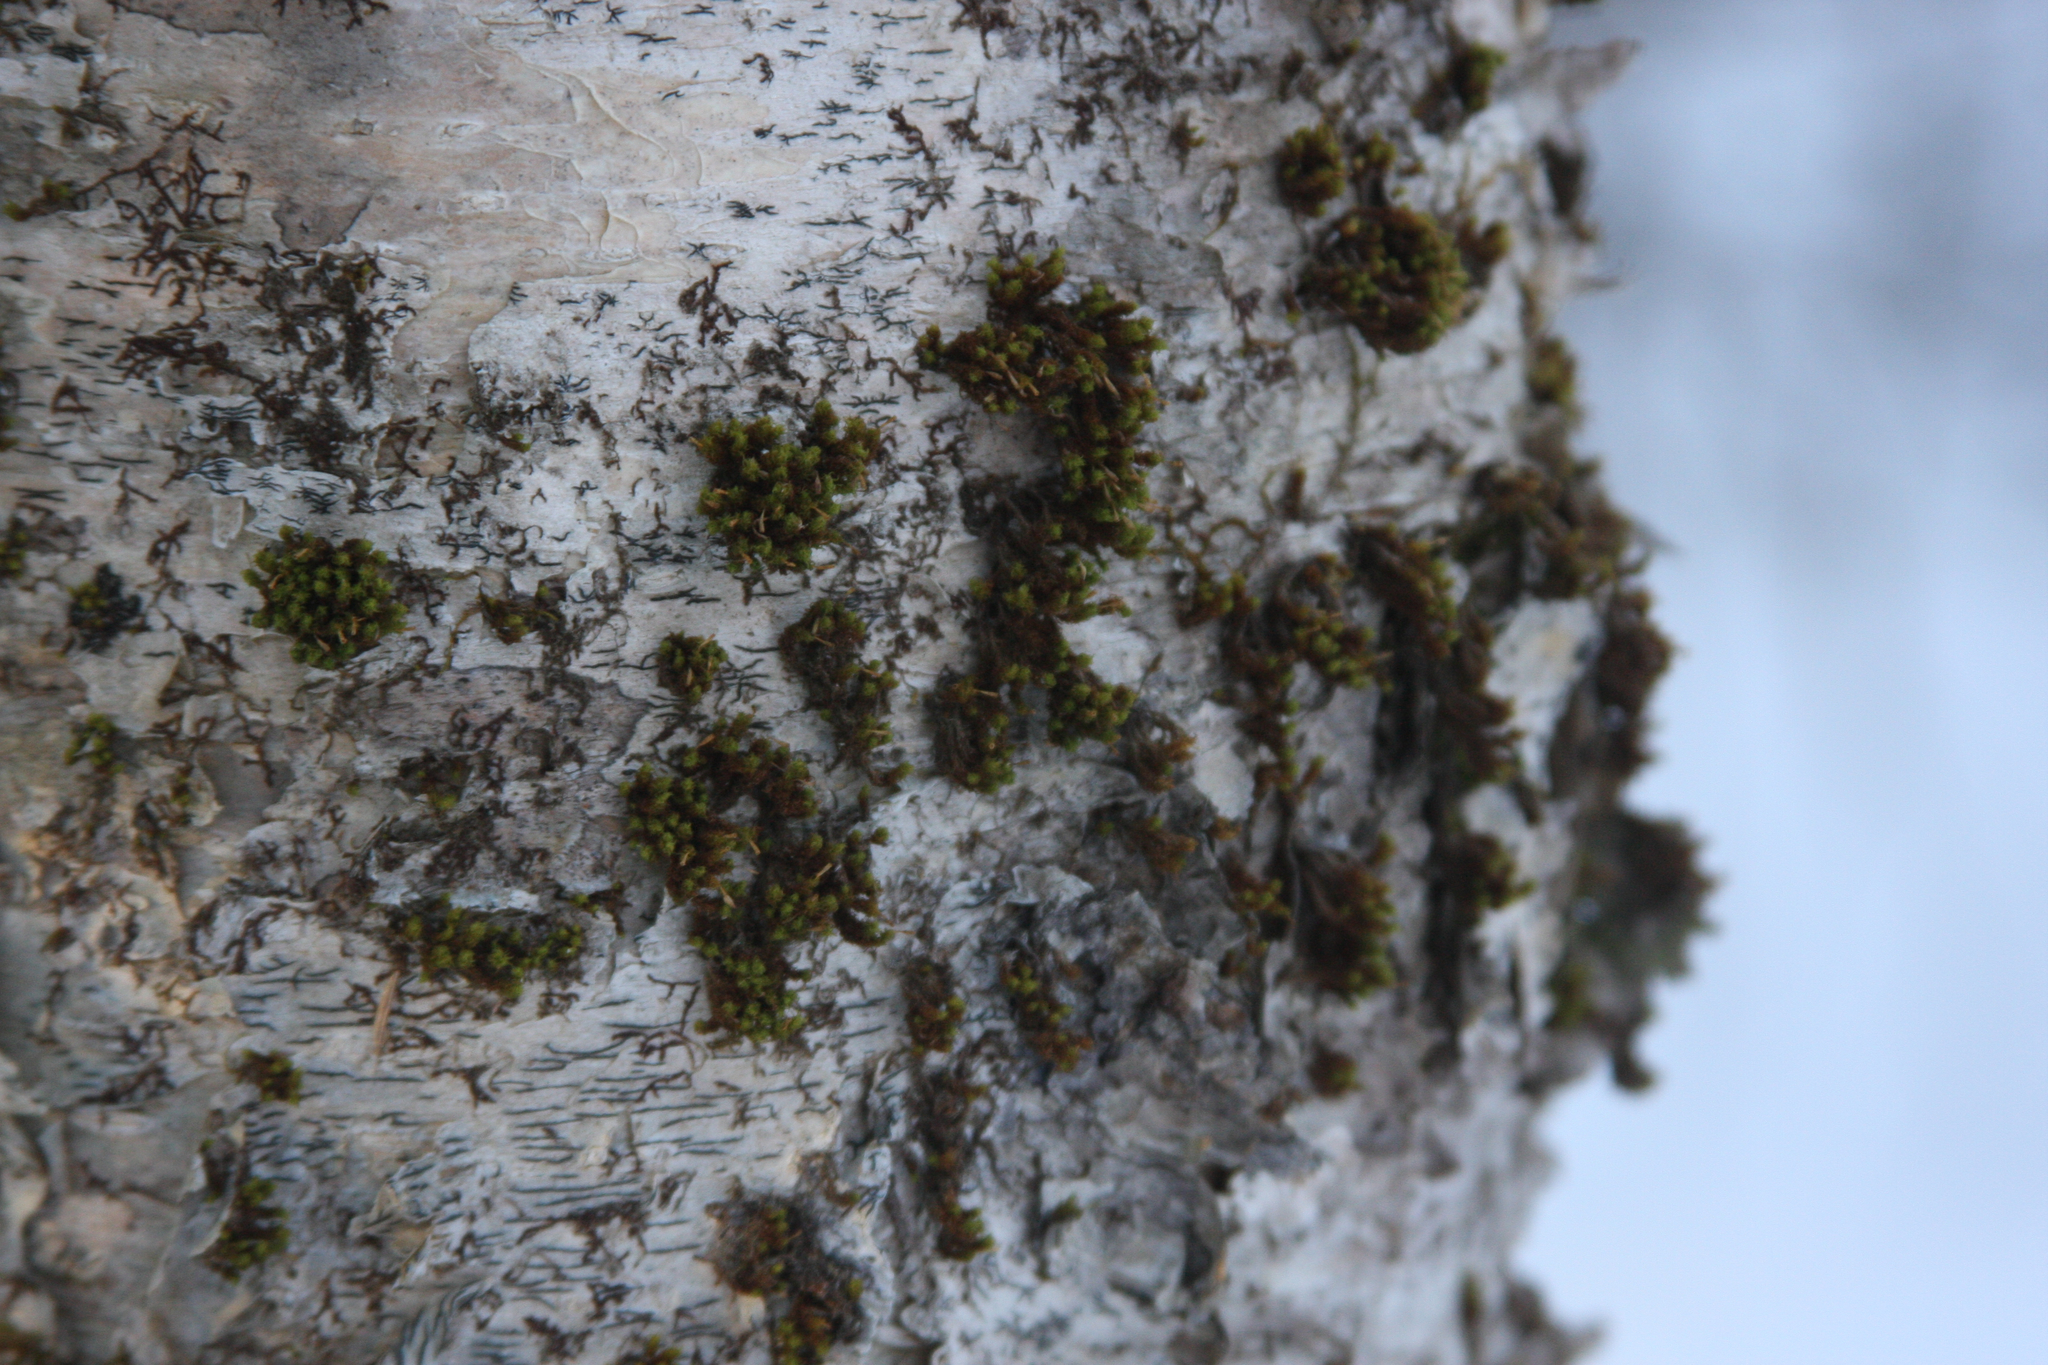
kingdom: Plantae
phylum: Bryophyta
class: Bryopsida
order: Orthotrichales
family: Orthotrichaceae
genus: Ulota
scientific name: Ulota crispa
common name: Crisped pincushion moss
